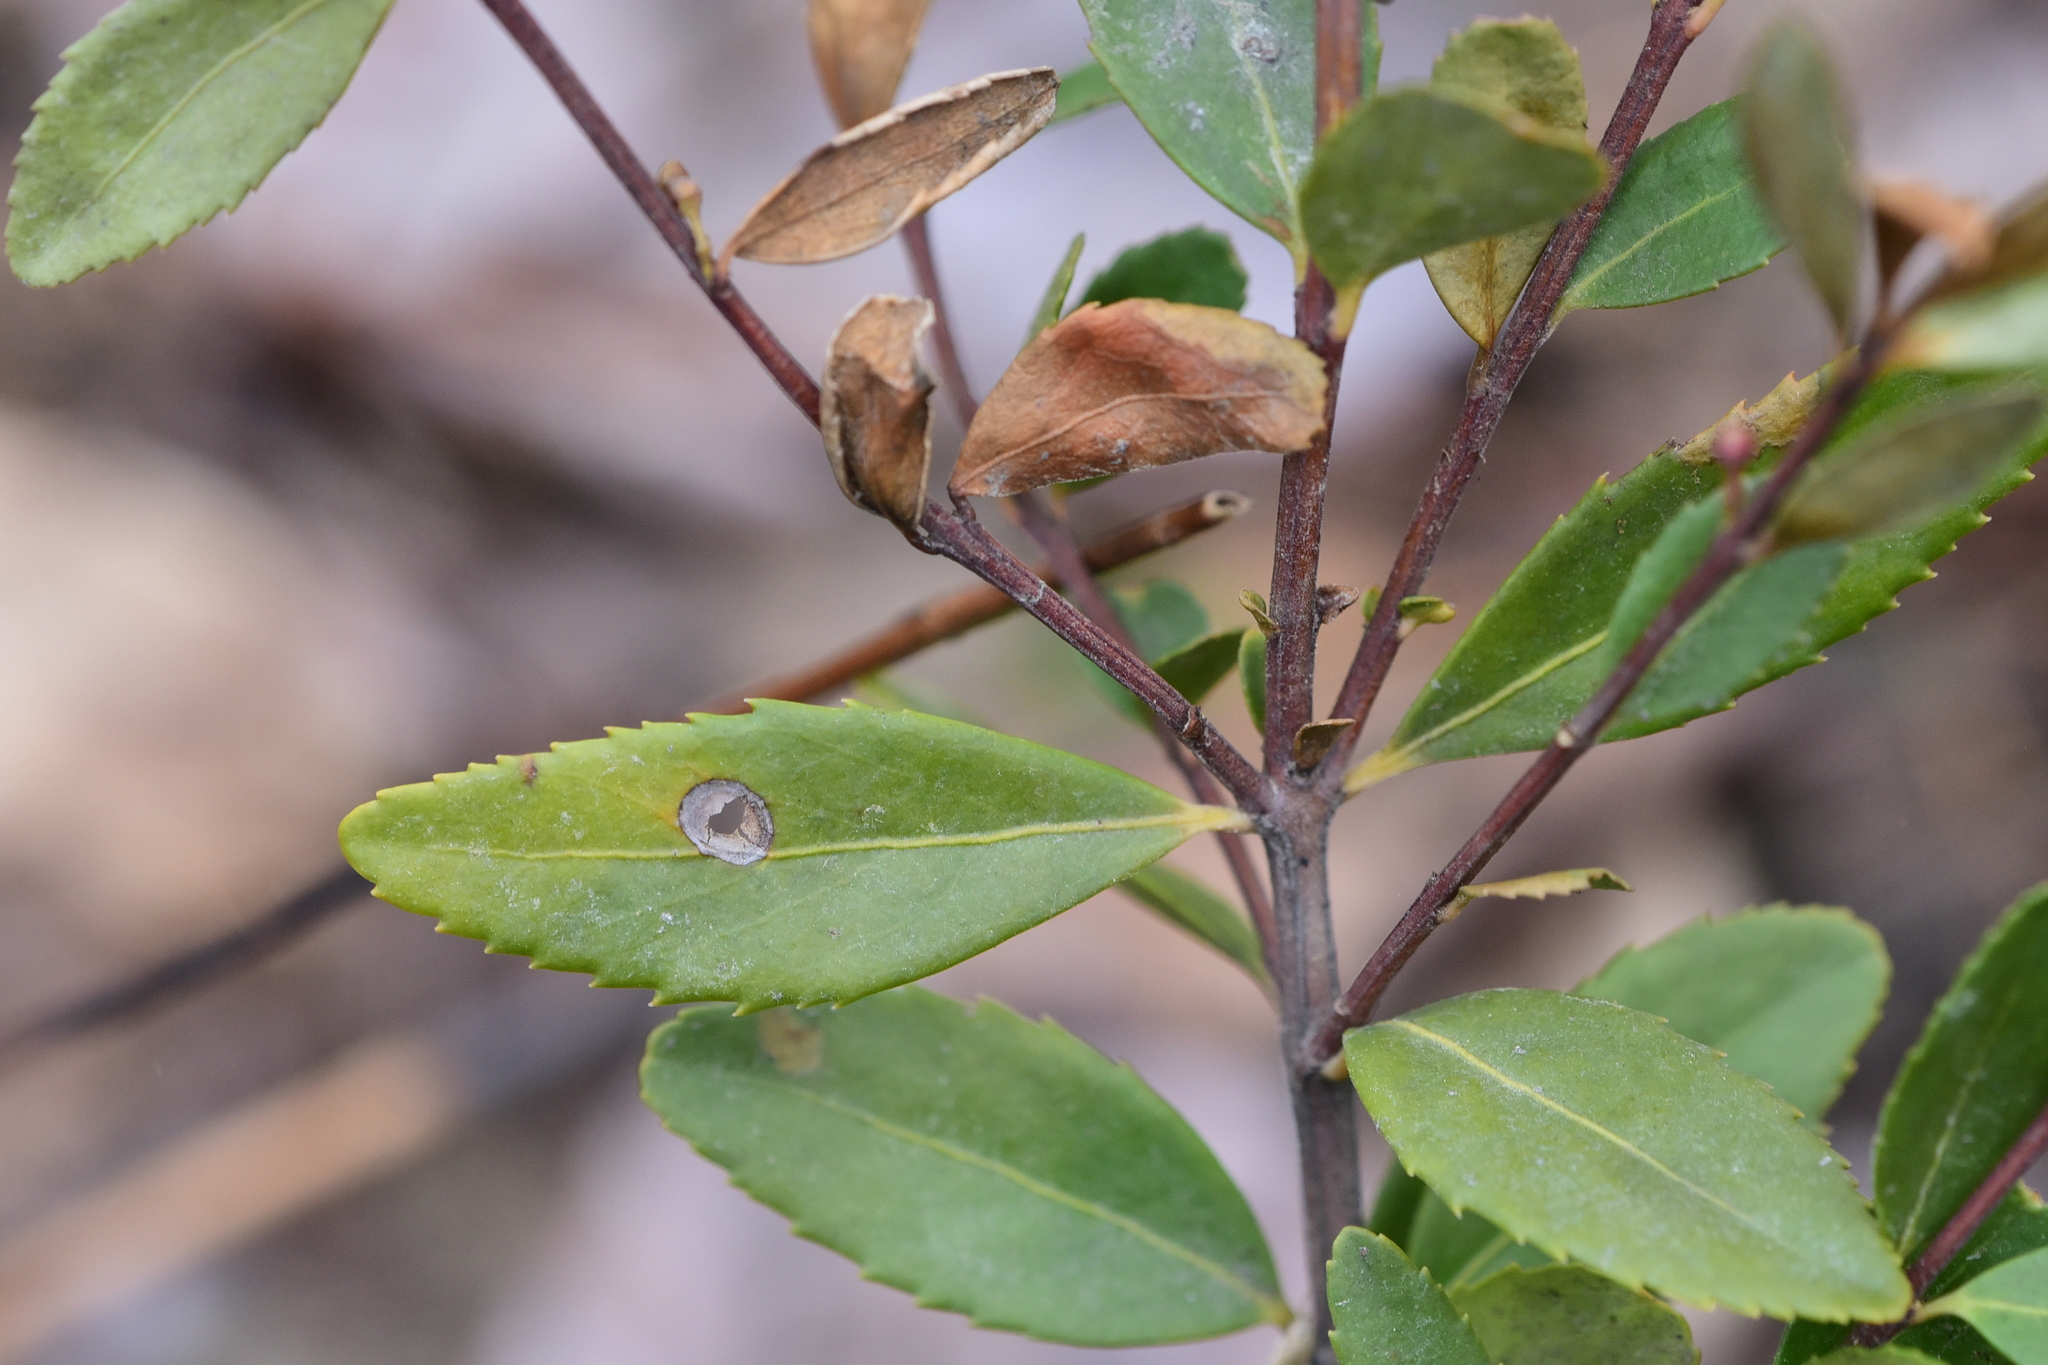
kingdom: Plantae
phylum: Tracheophyta
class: Magnoliopsida
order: Celastrales
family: Celastraceae
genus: Paxistima
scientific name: Paxistima myrsinites
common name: Mountain-lover
